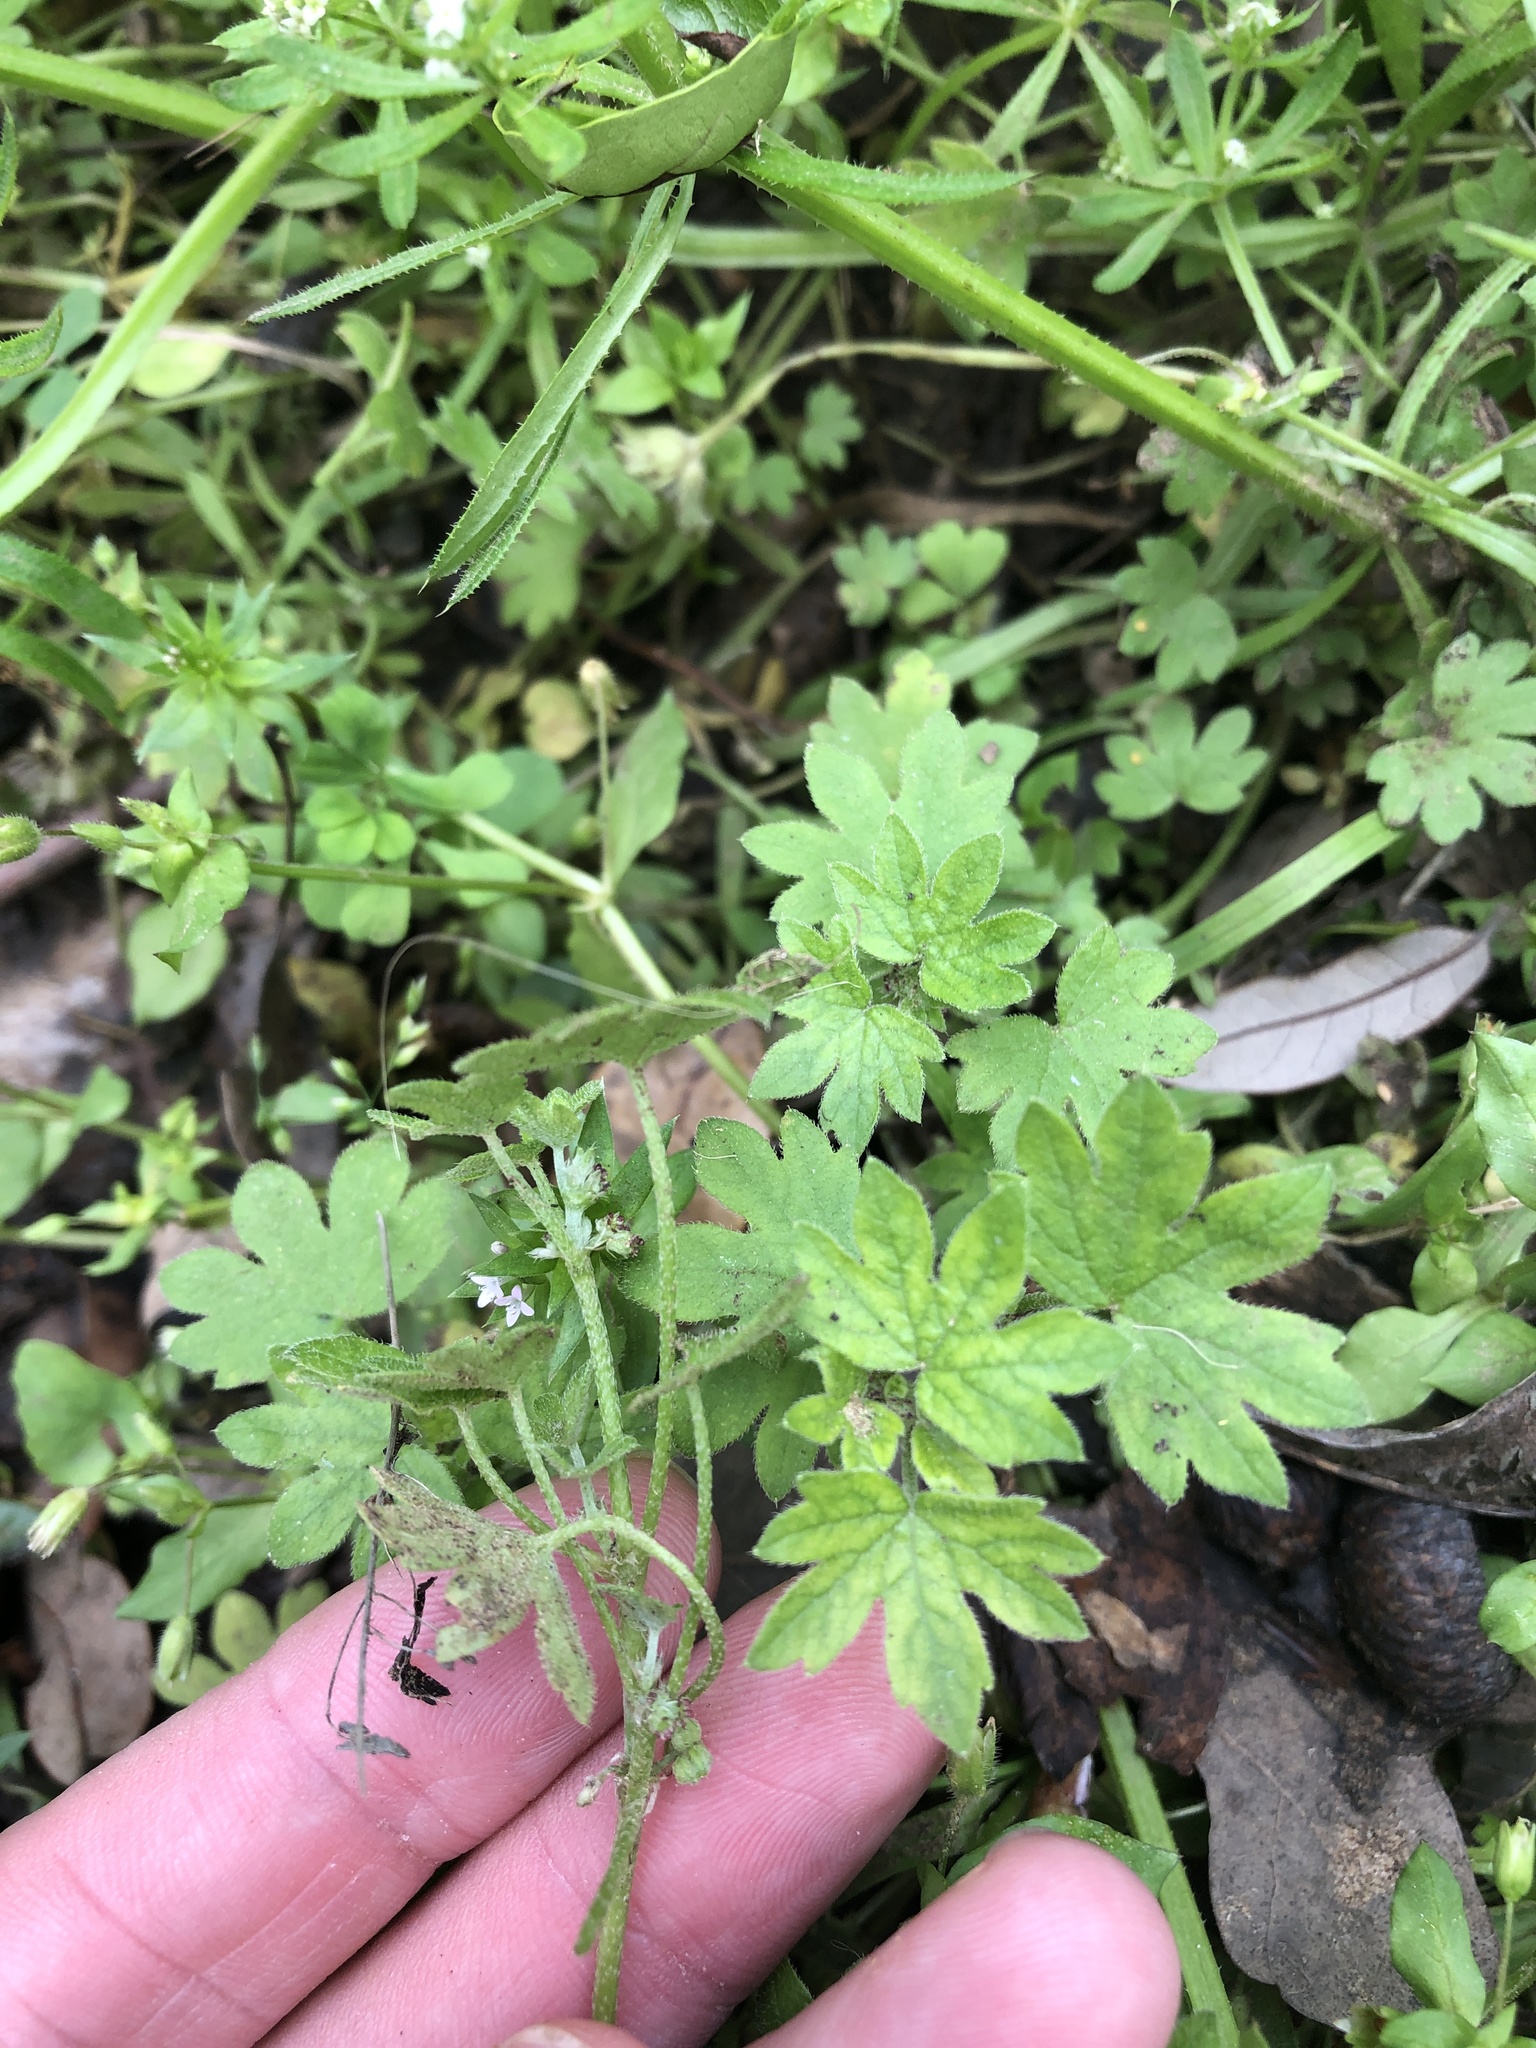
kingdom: Plantae
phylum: Tracheophyta
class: Magnoliopsida
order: Apiales
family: Apiaceae
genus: Bowlesia
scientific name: Bowlesia incana
